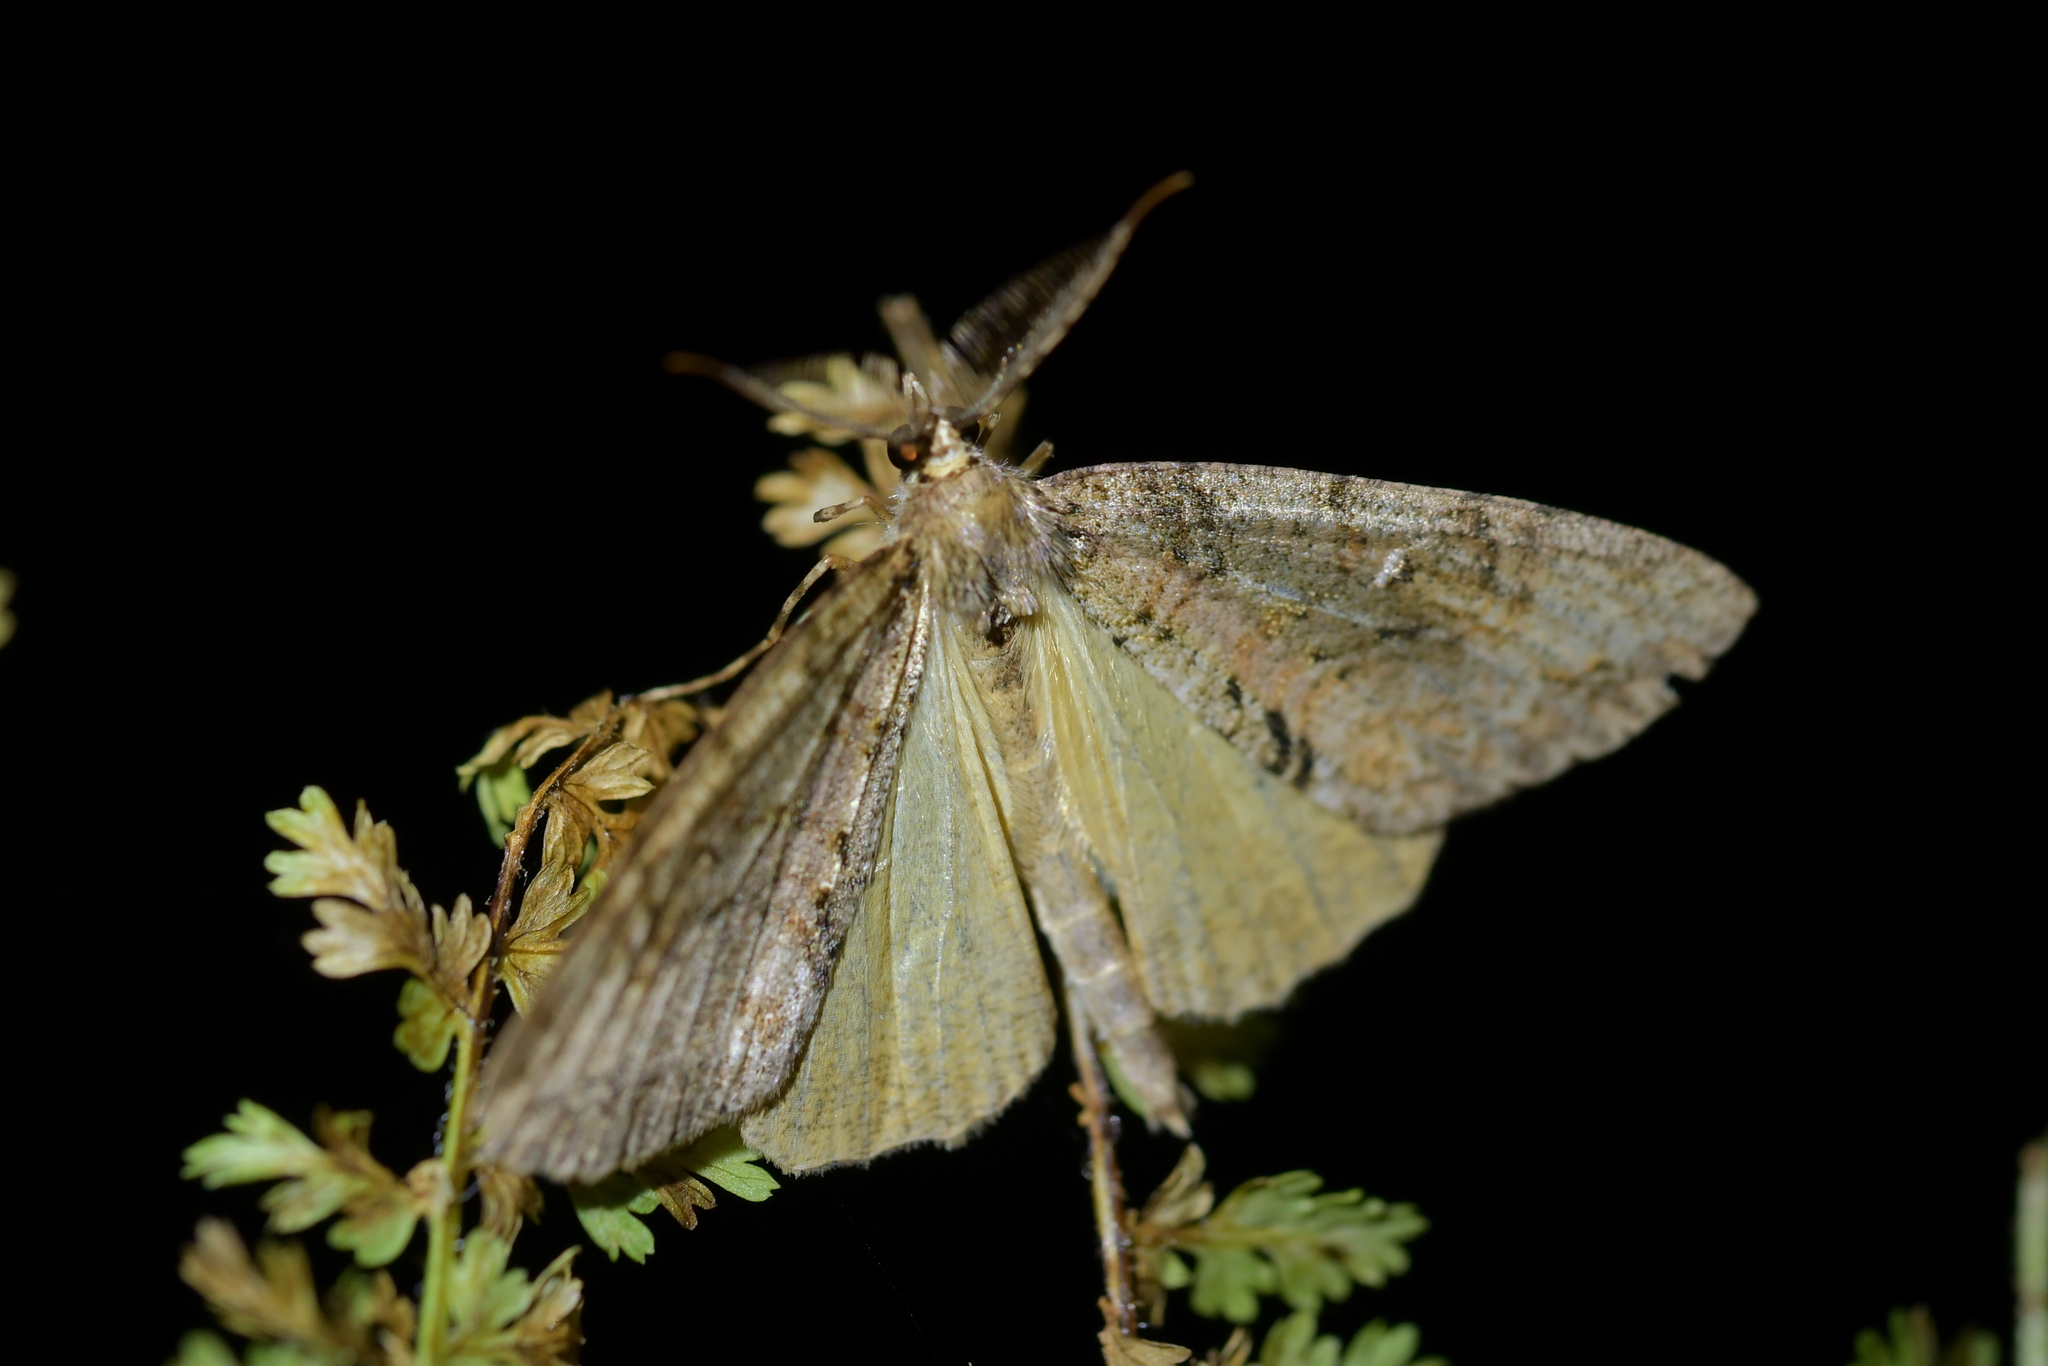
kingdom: Animalia
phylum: Arthropoda
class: Insecta
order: Lepidoptera
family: Geometridae
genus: Pseudocoremia
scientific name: Pseudocoremia suavis
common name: Common forest looper
